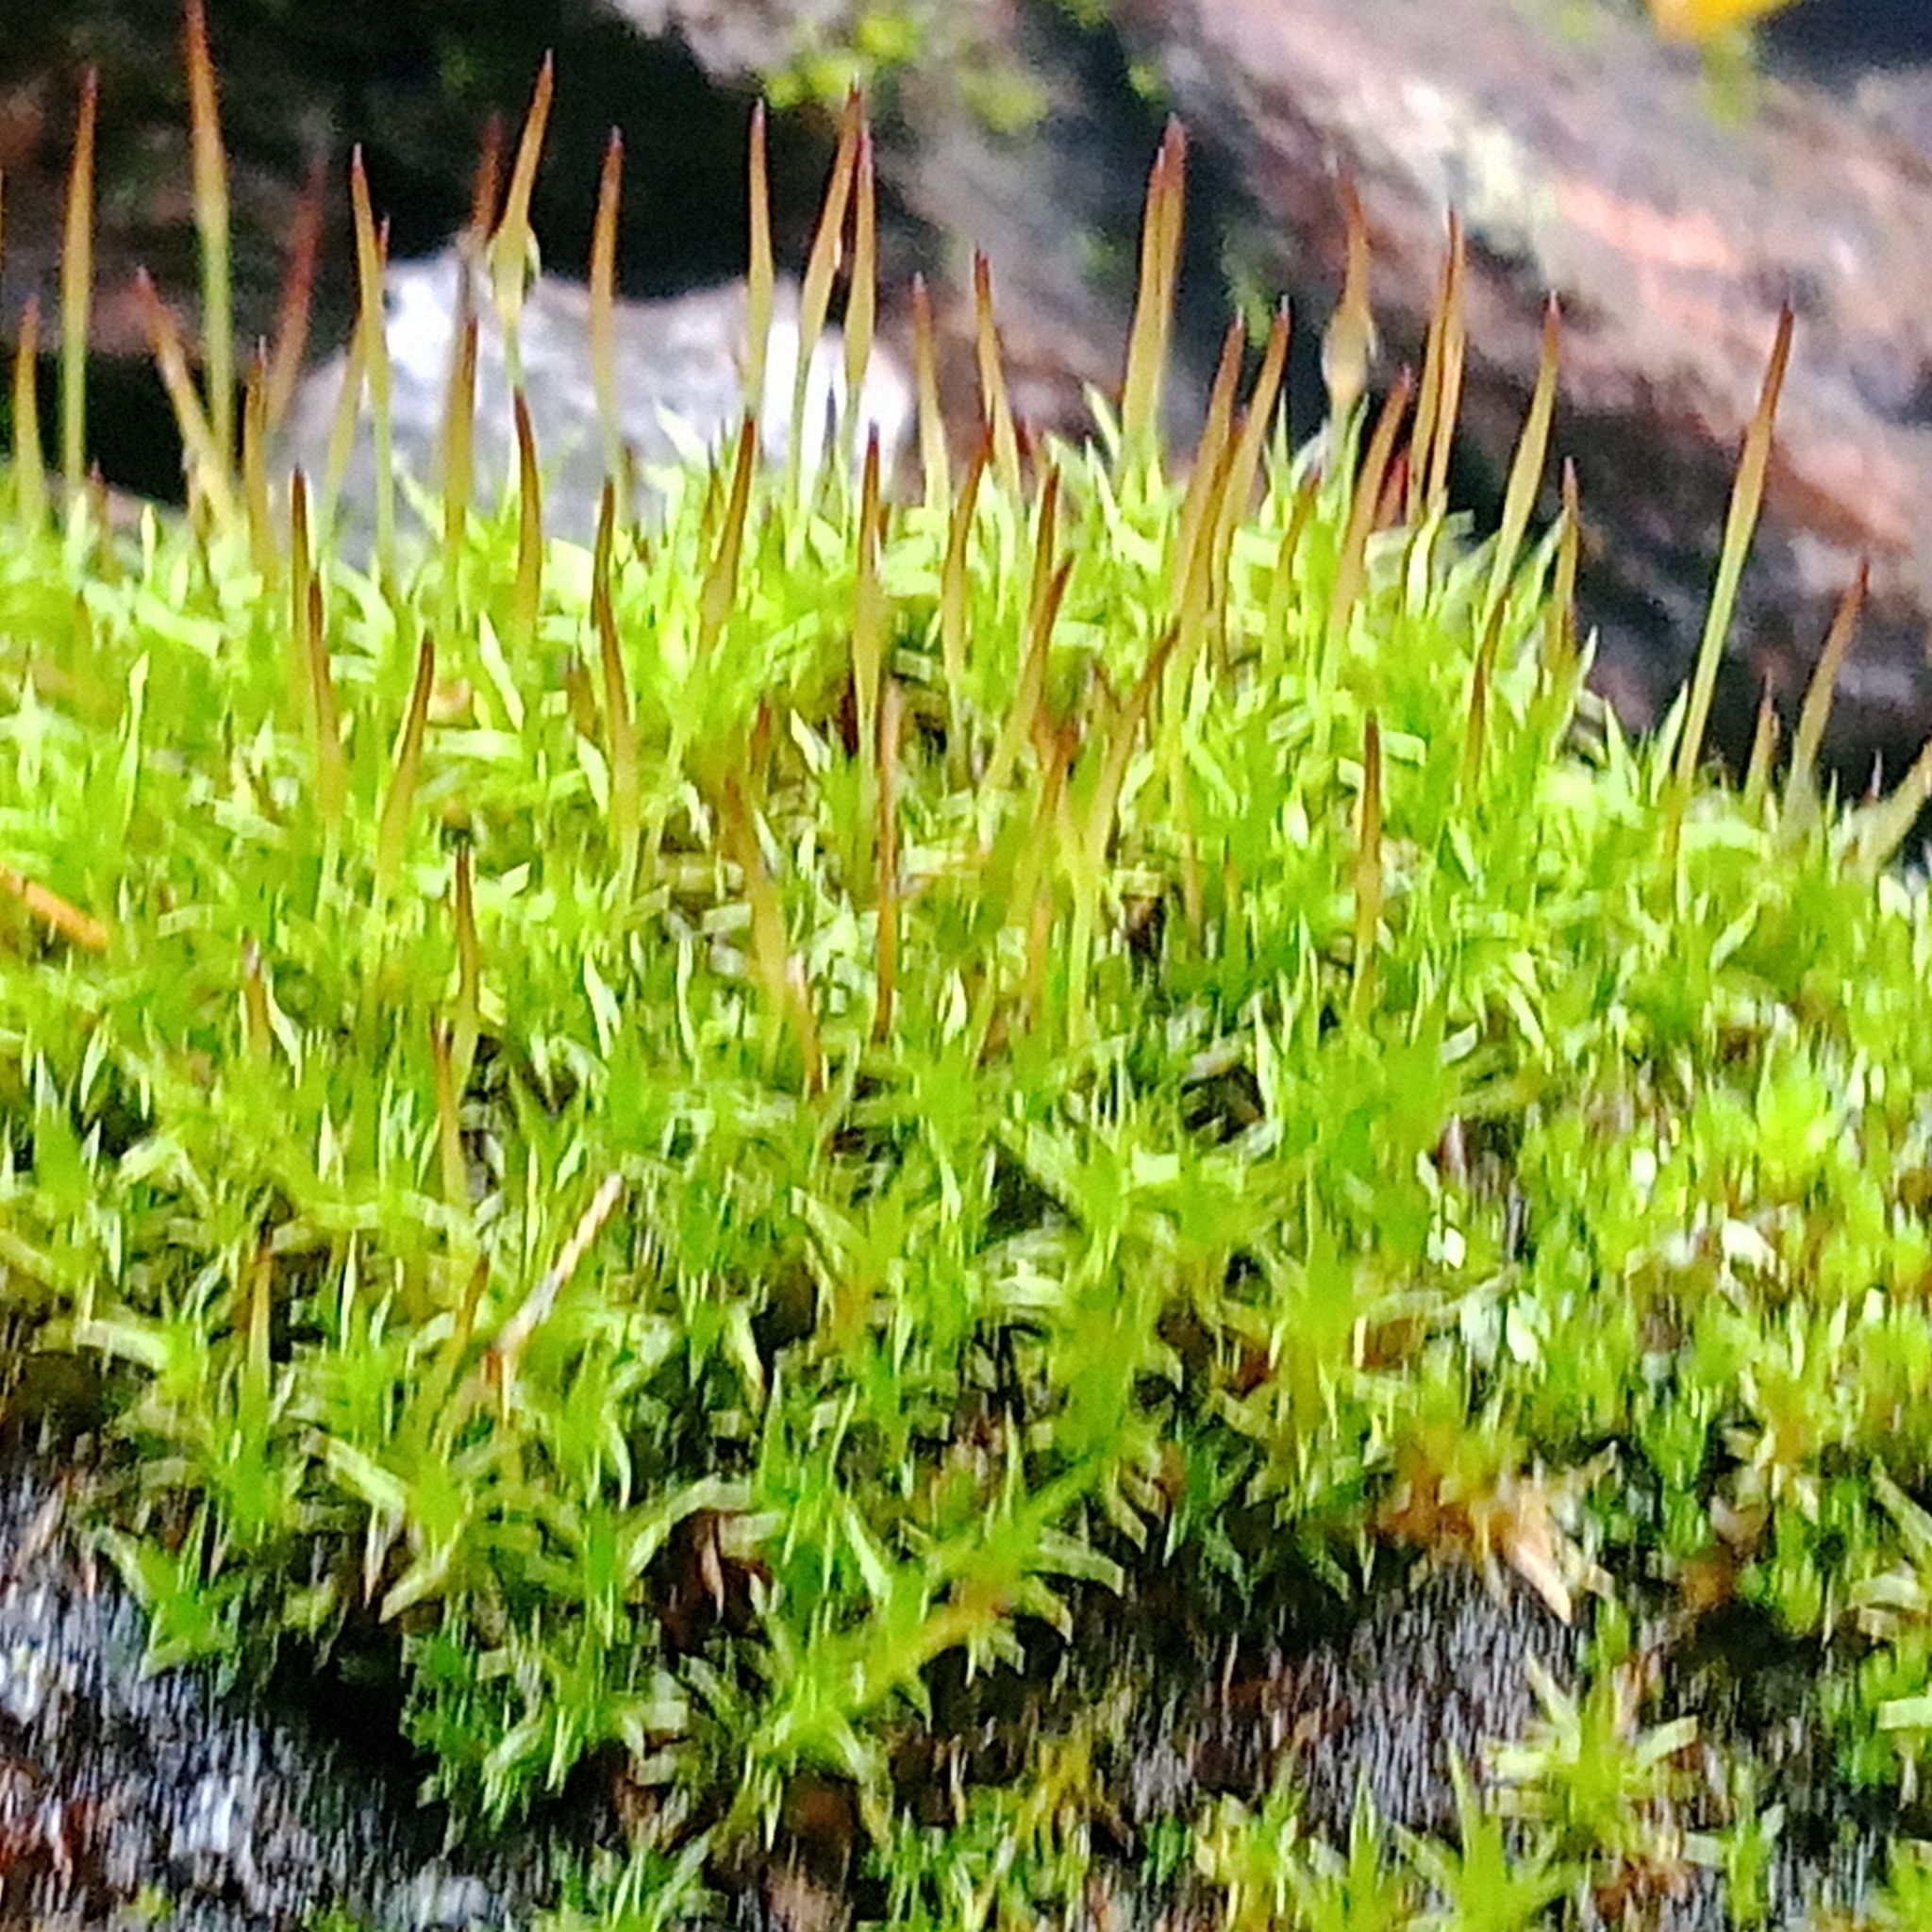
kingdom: Plantae
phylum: Bryophyta
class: Bryopsida
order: Dicranales
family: Ditrichaceae
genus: Ceratodon
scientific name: Ceratodon purpureus
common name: Redshank
